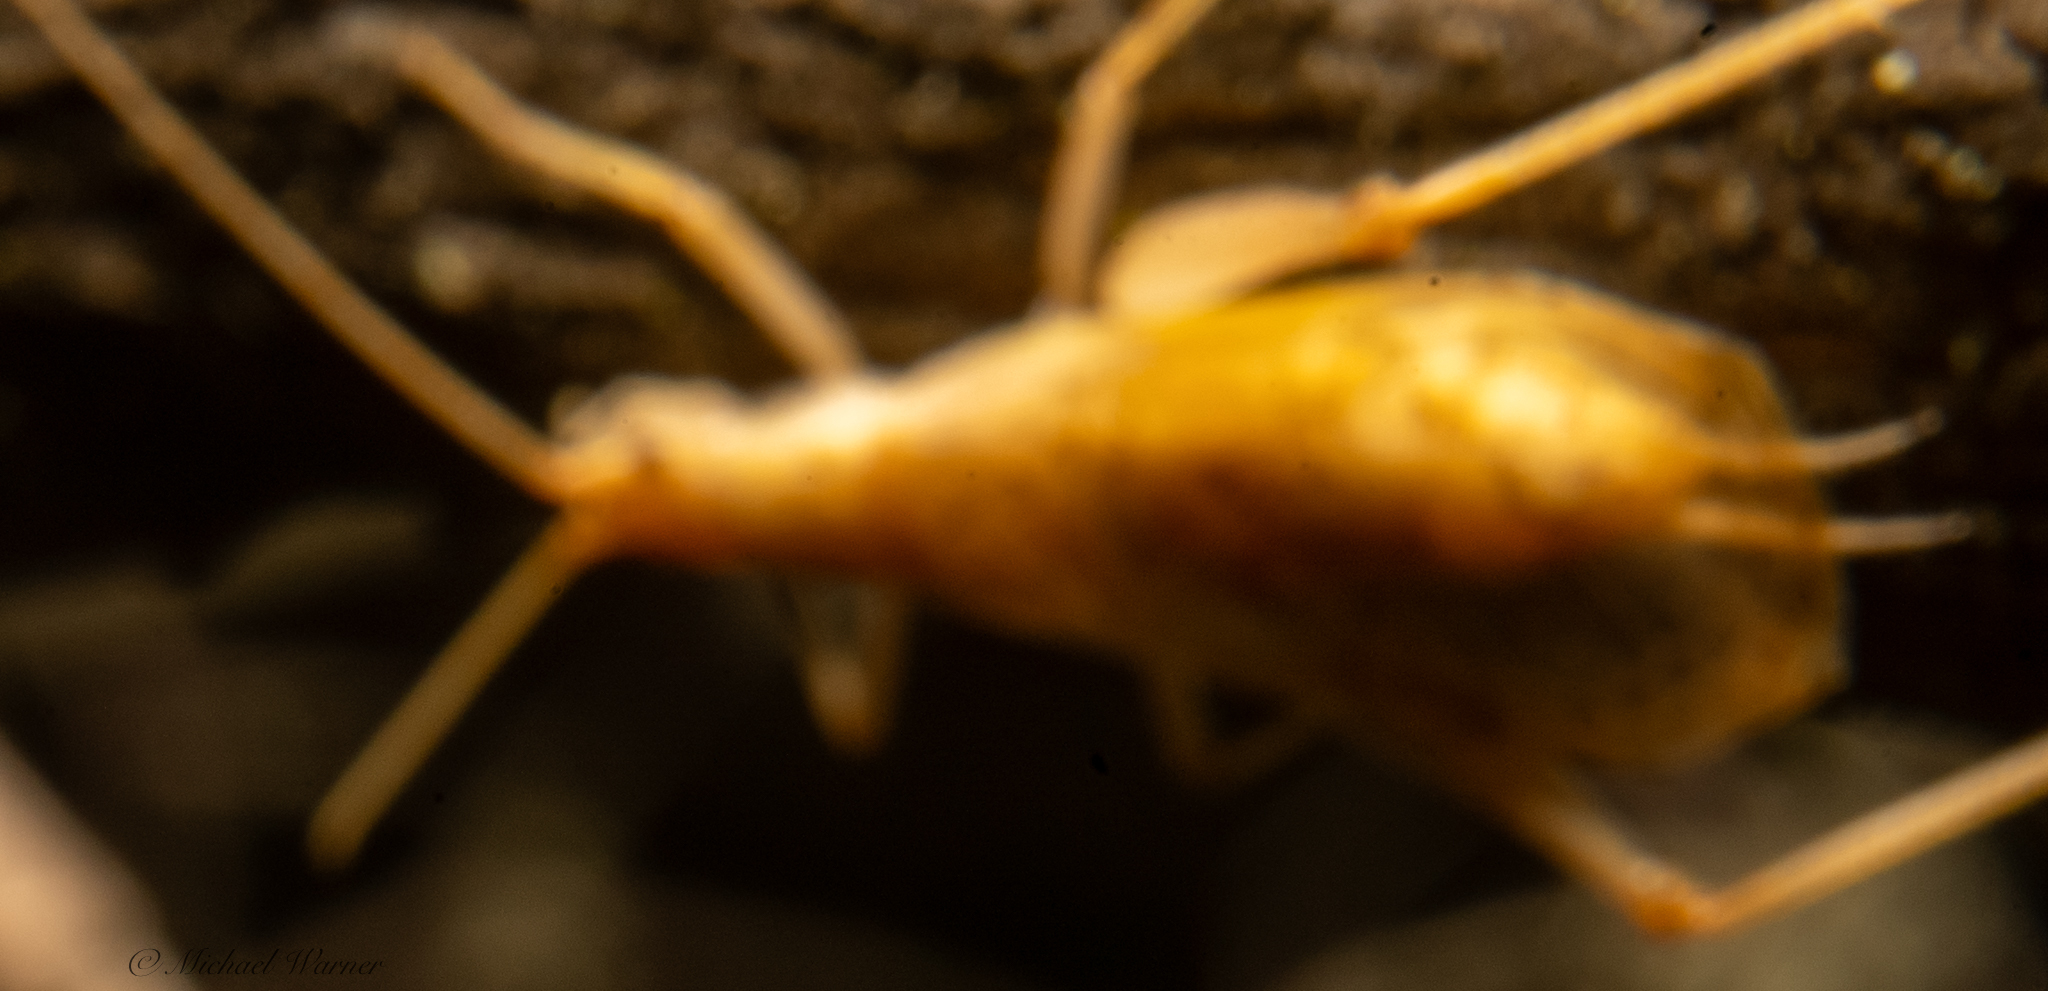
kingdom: Animalia
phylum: Arthropoda
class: Insecta
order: Orthoptera
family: Gryllidae
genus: Oecanthus
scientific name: Oecanthus californicus
